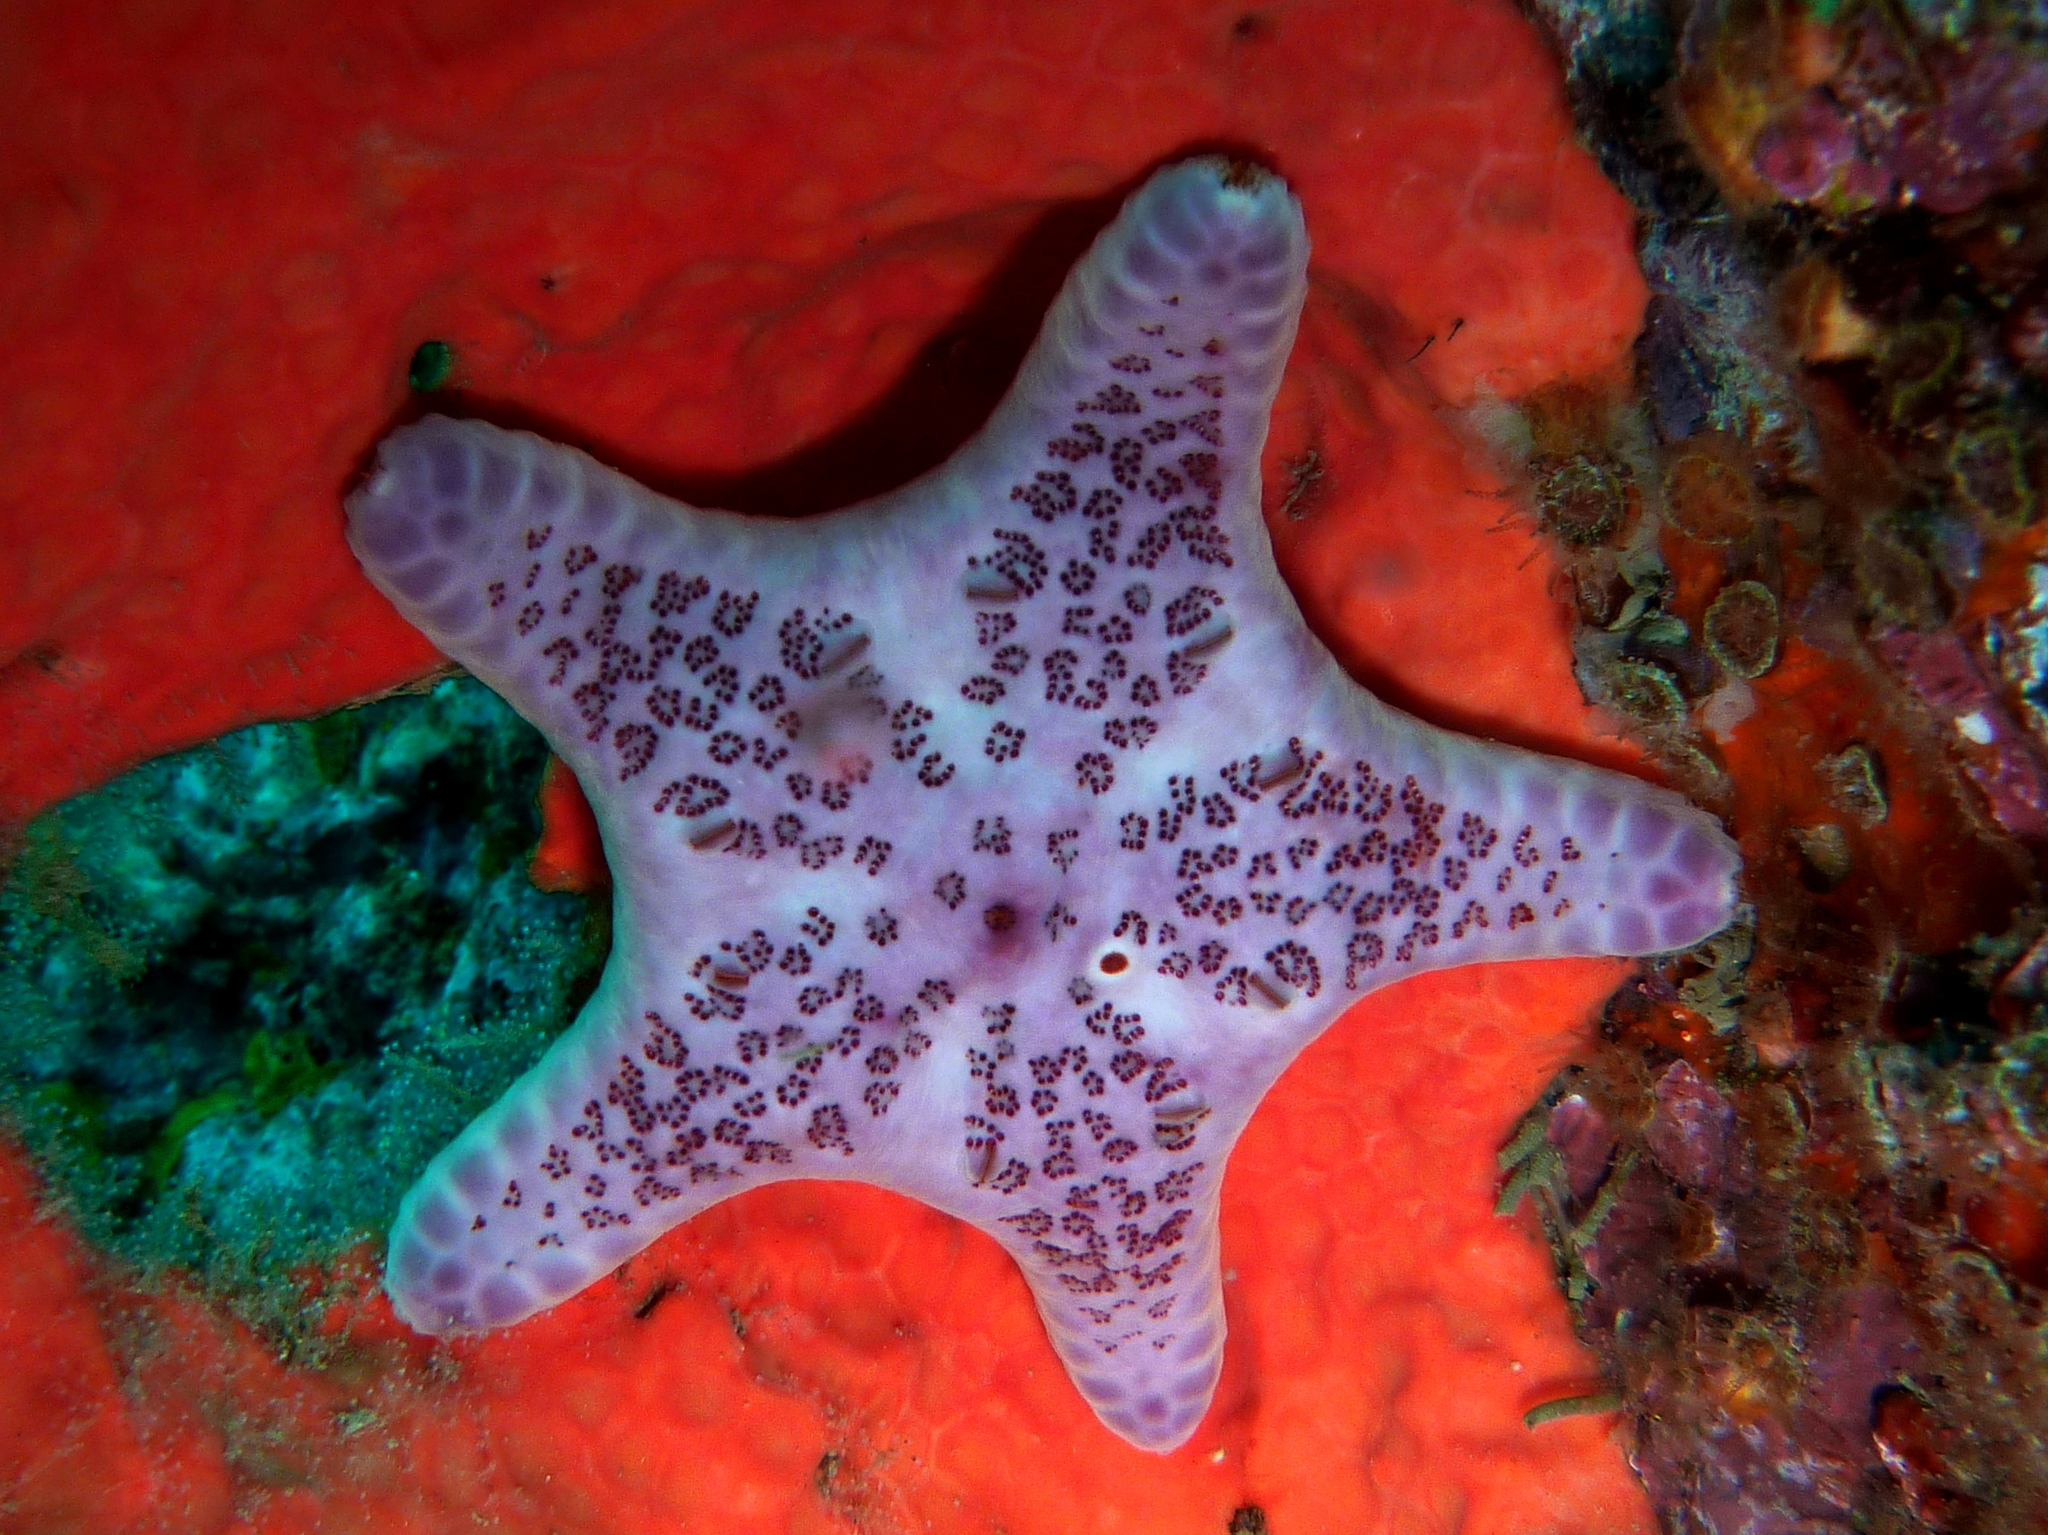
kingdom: Animalia
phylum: Echinodermata
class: Asteroidea
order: Valvatida
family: Asteropseidae
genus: Petricia
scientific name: Petricia vernicina
